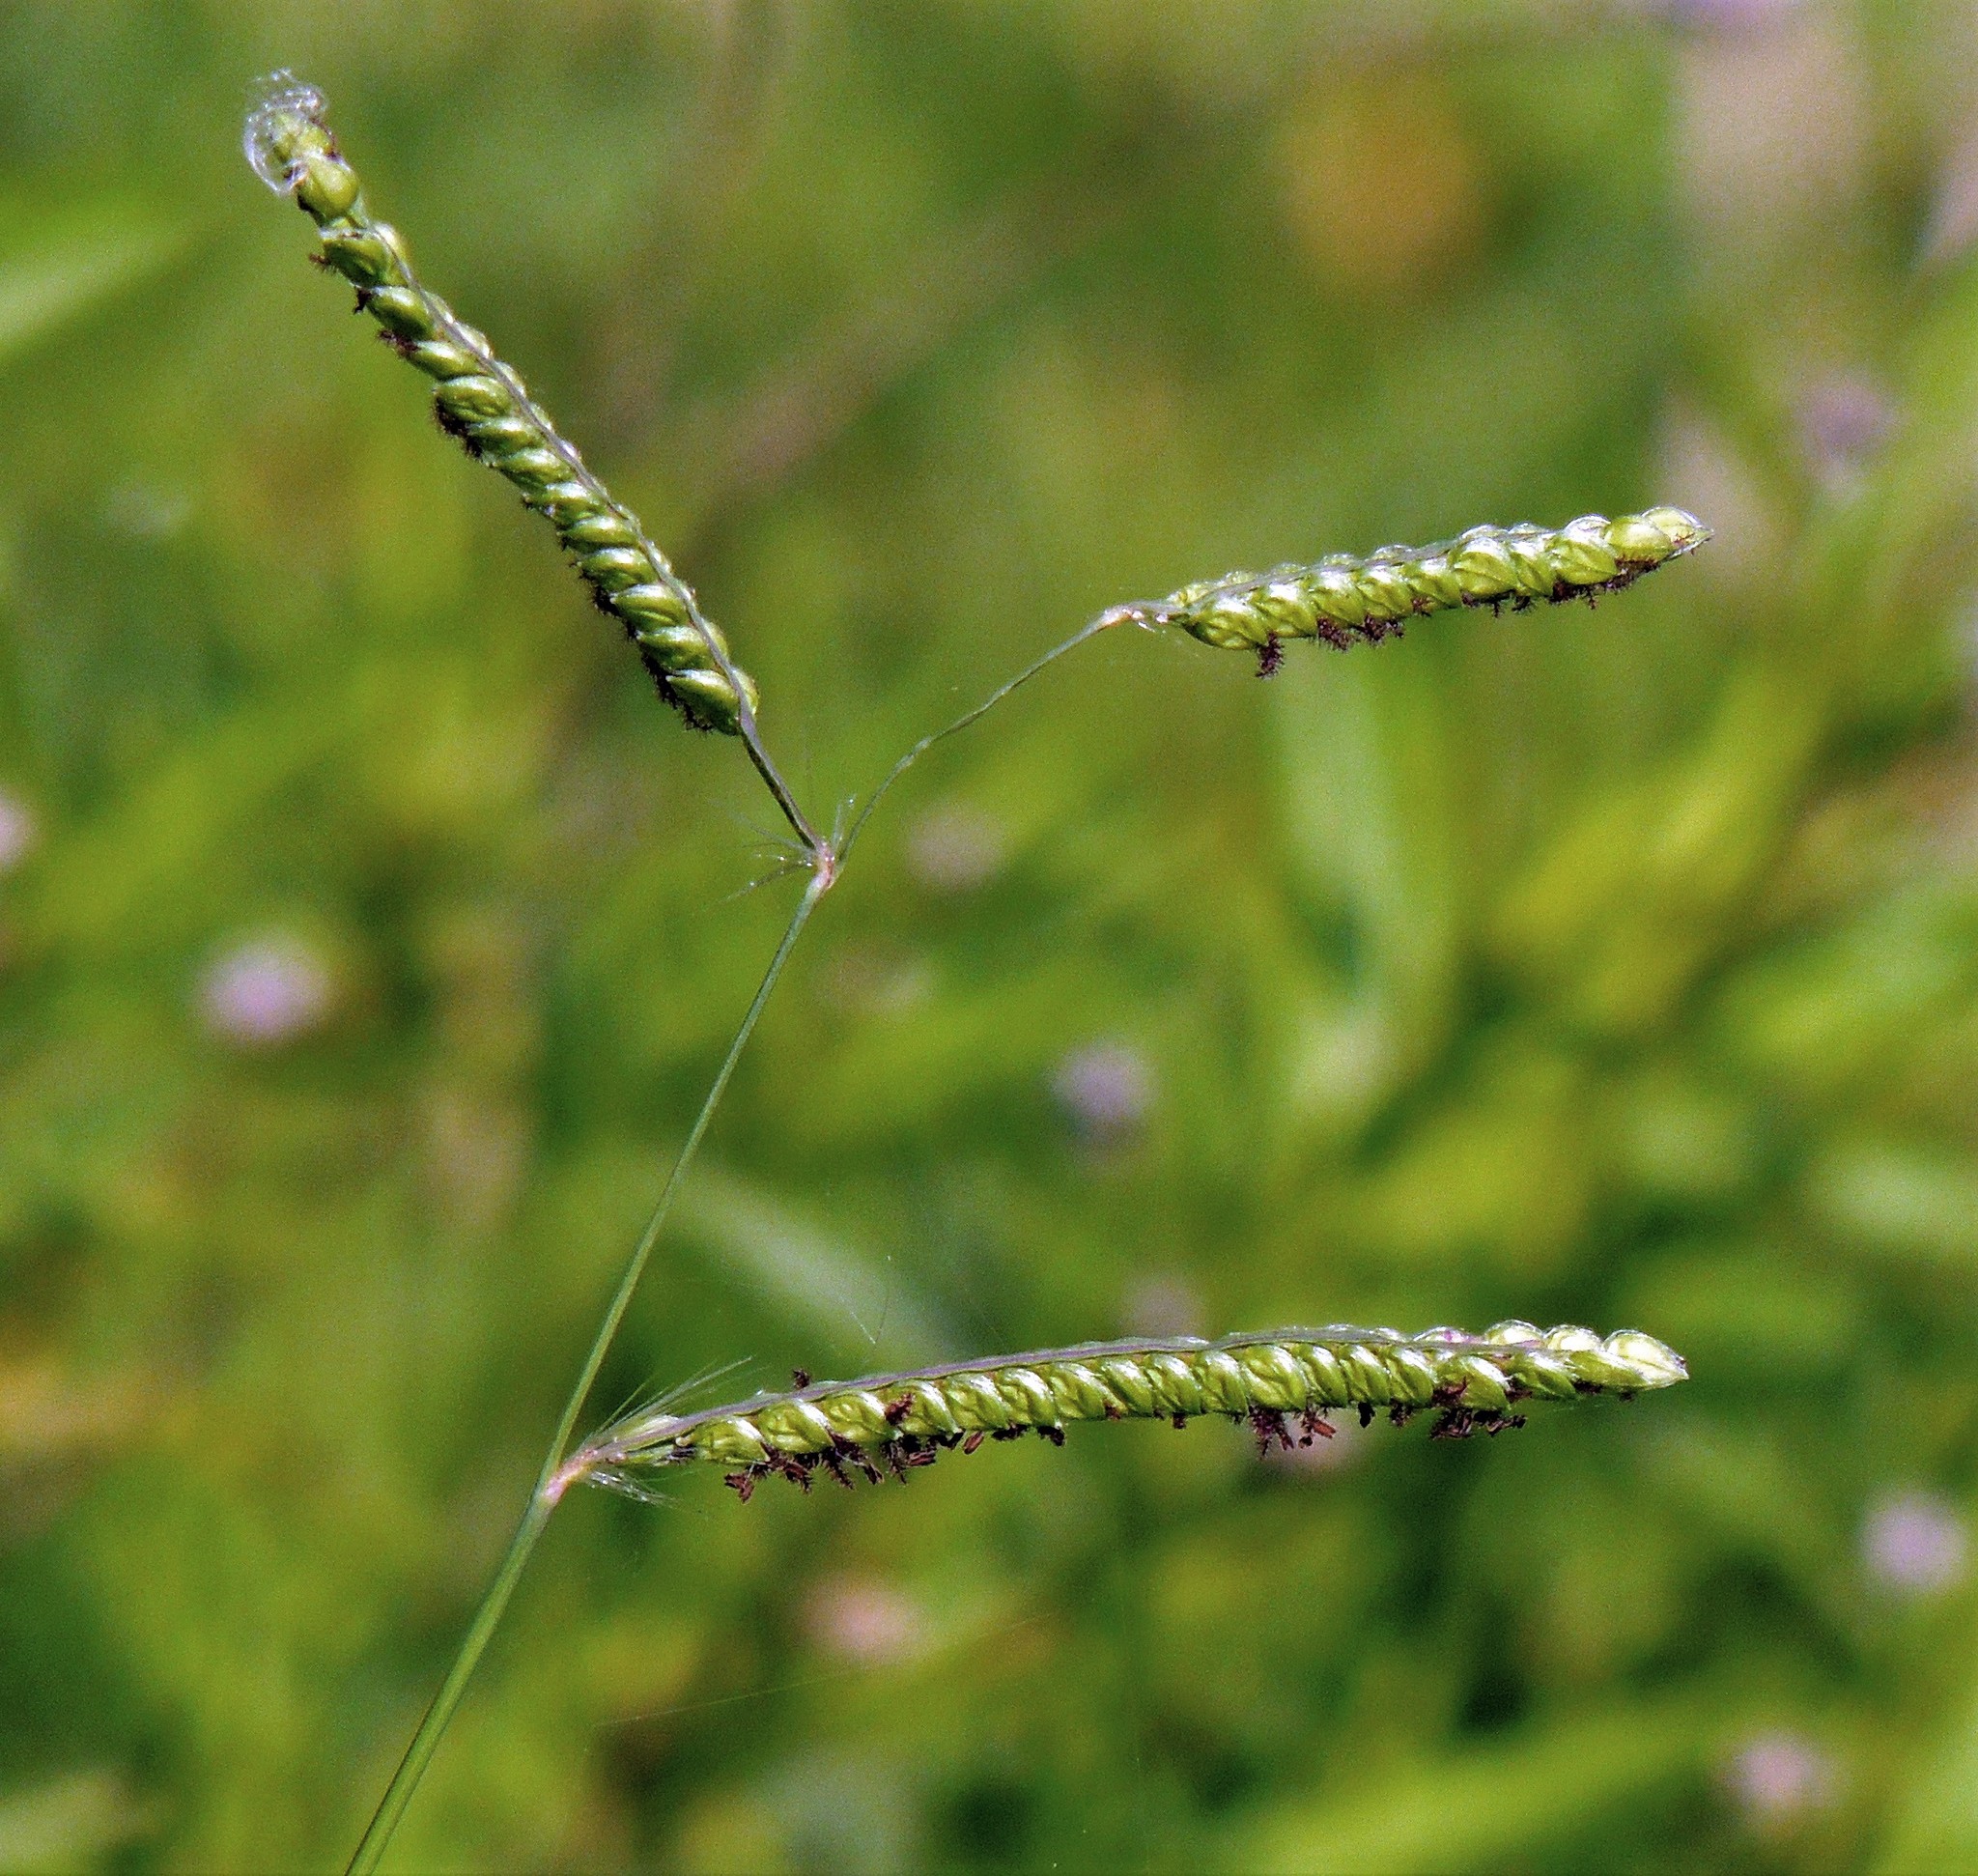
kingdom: Plantae
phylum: Tracheophyta
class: Liliopsida
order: Poales
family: Poaceae
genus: Paspalum
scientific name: Paspalum dilatatum
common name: Dallisgrass
